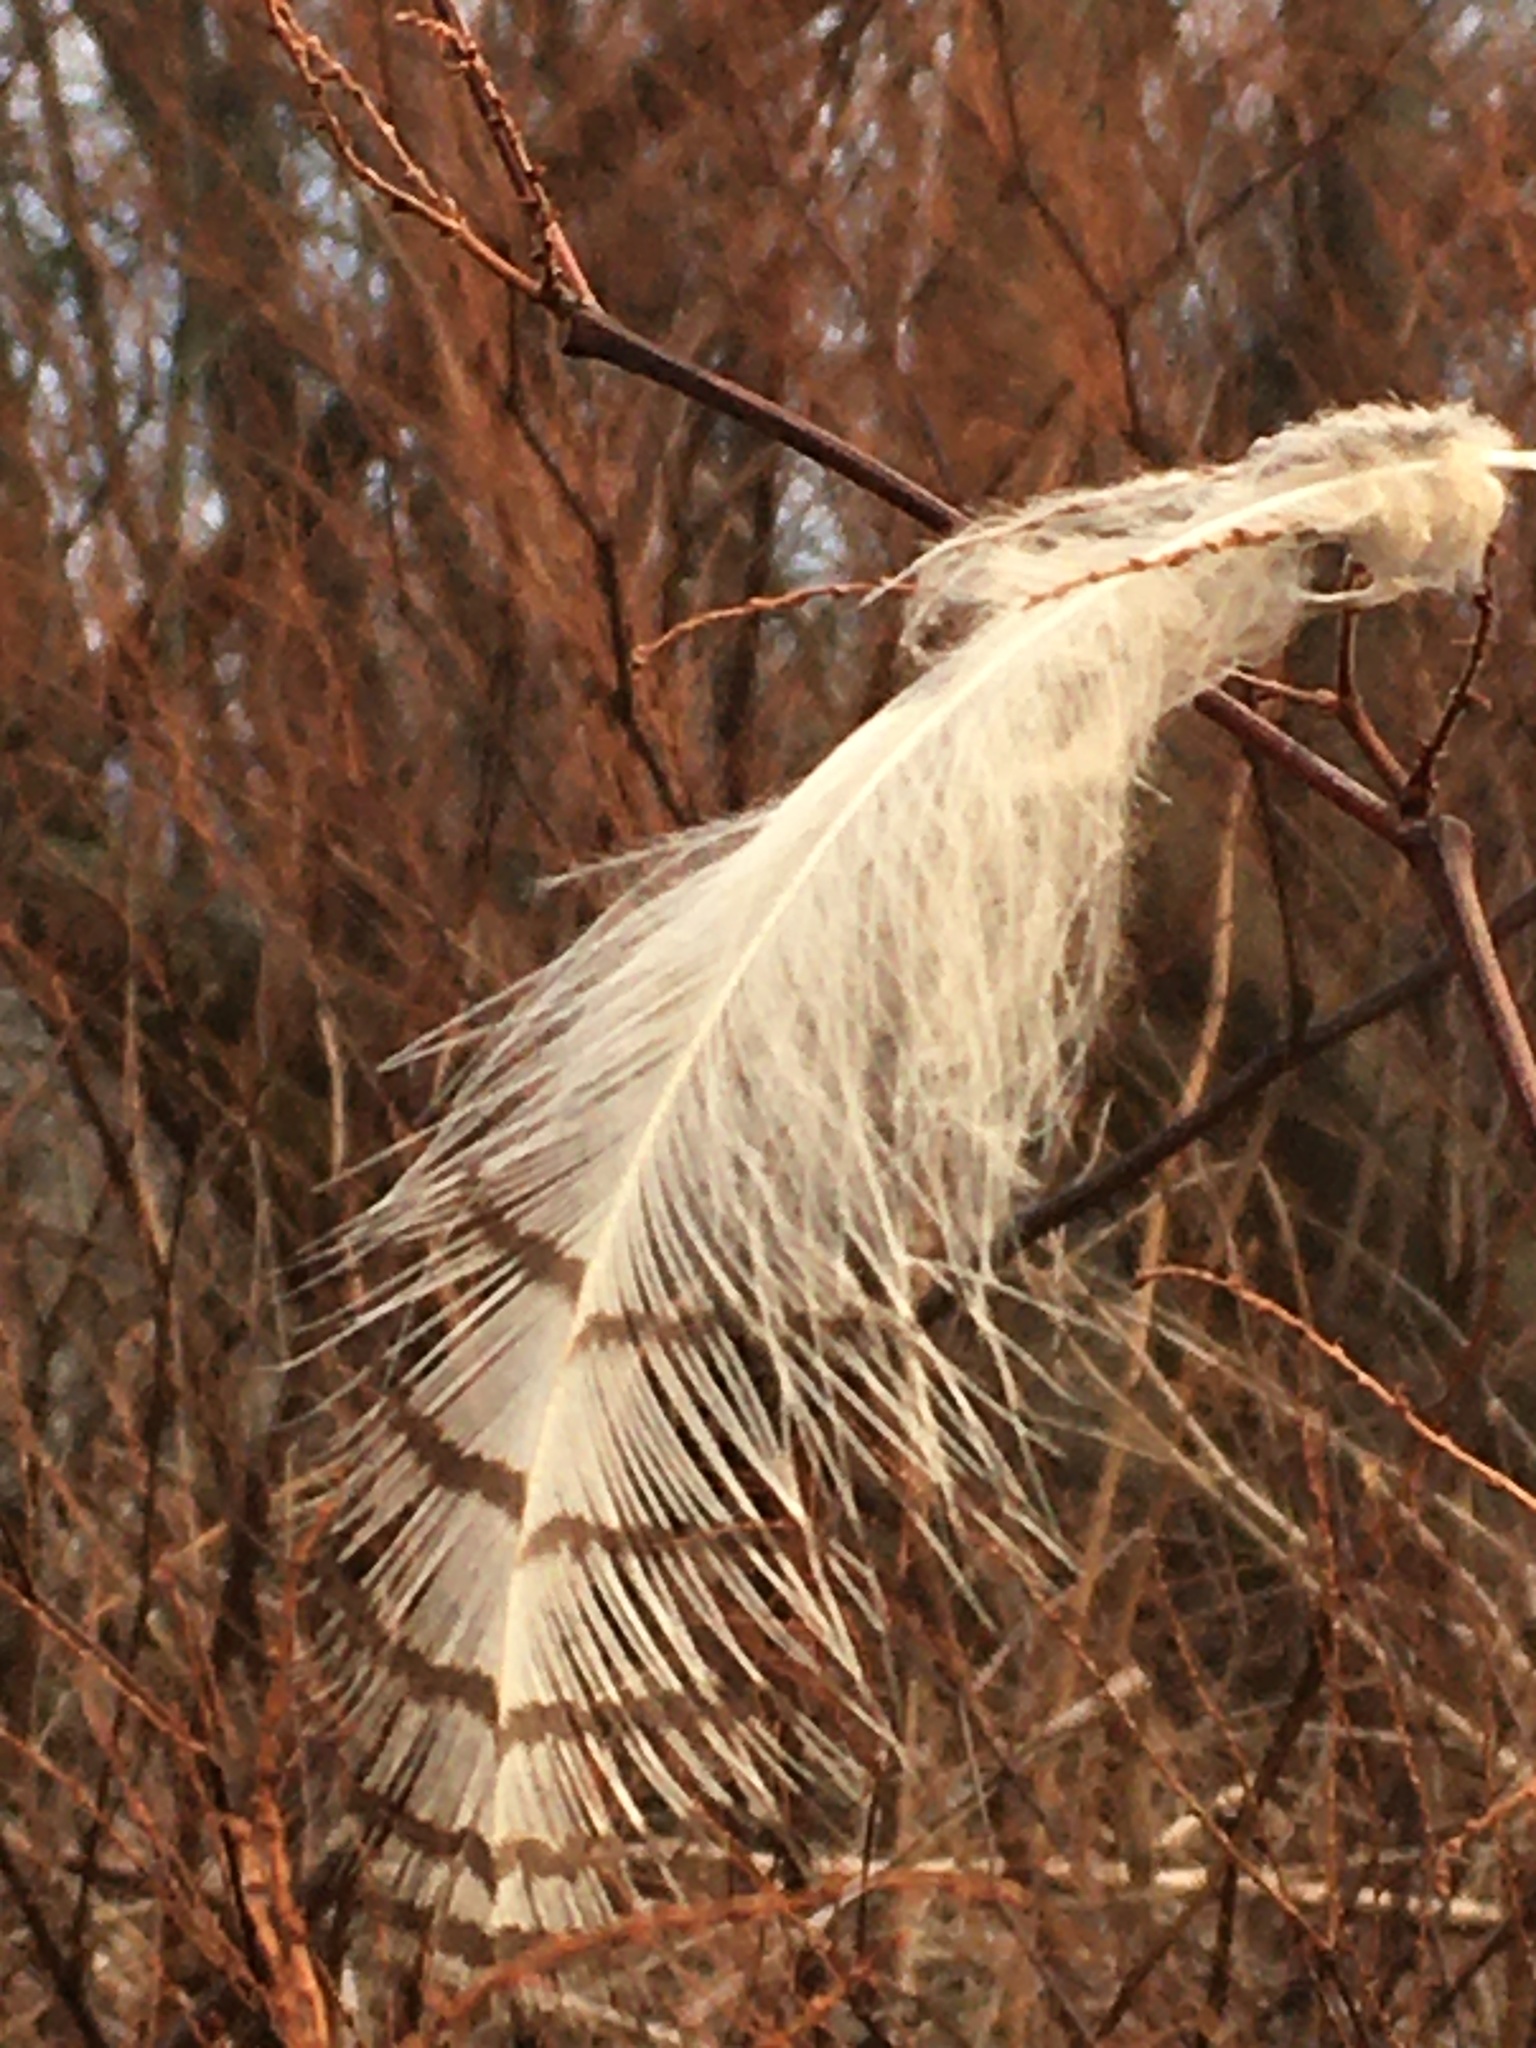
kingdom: Animalia
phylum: Chordata
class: Aves
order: Strigiformes
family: Strigidae
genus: Bubo
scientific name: Bubo virginianus
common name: Great horned owl
